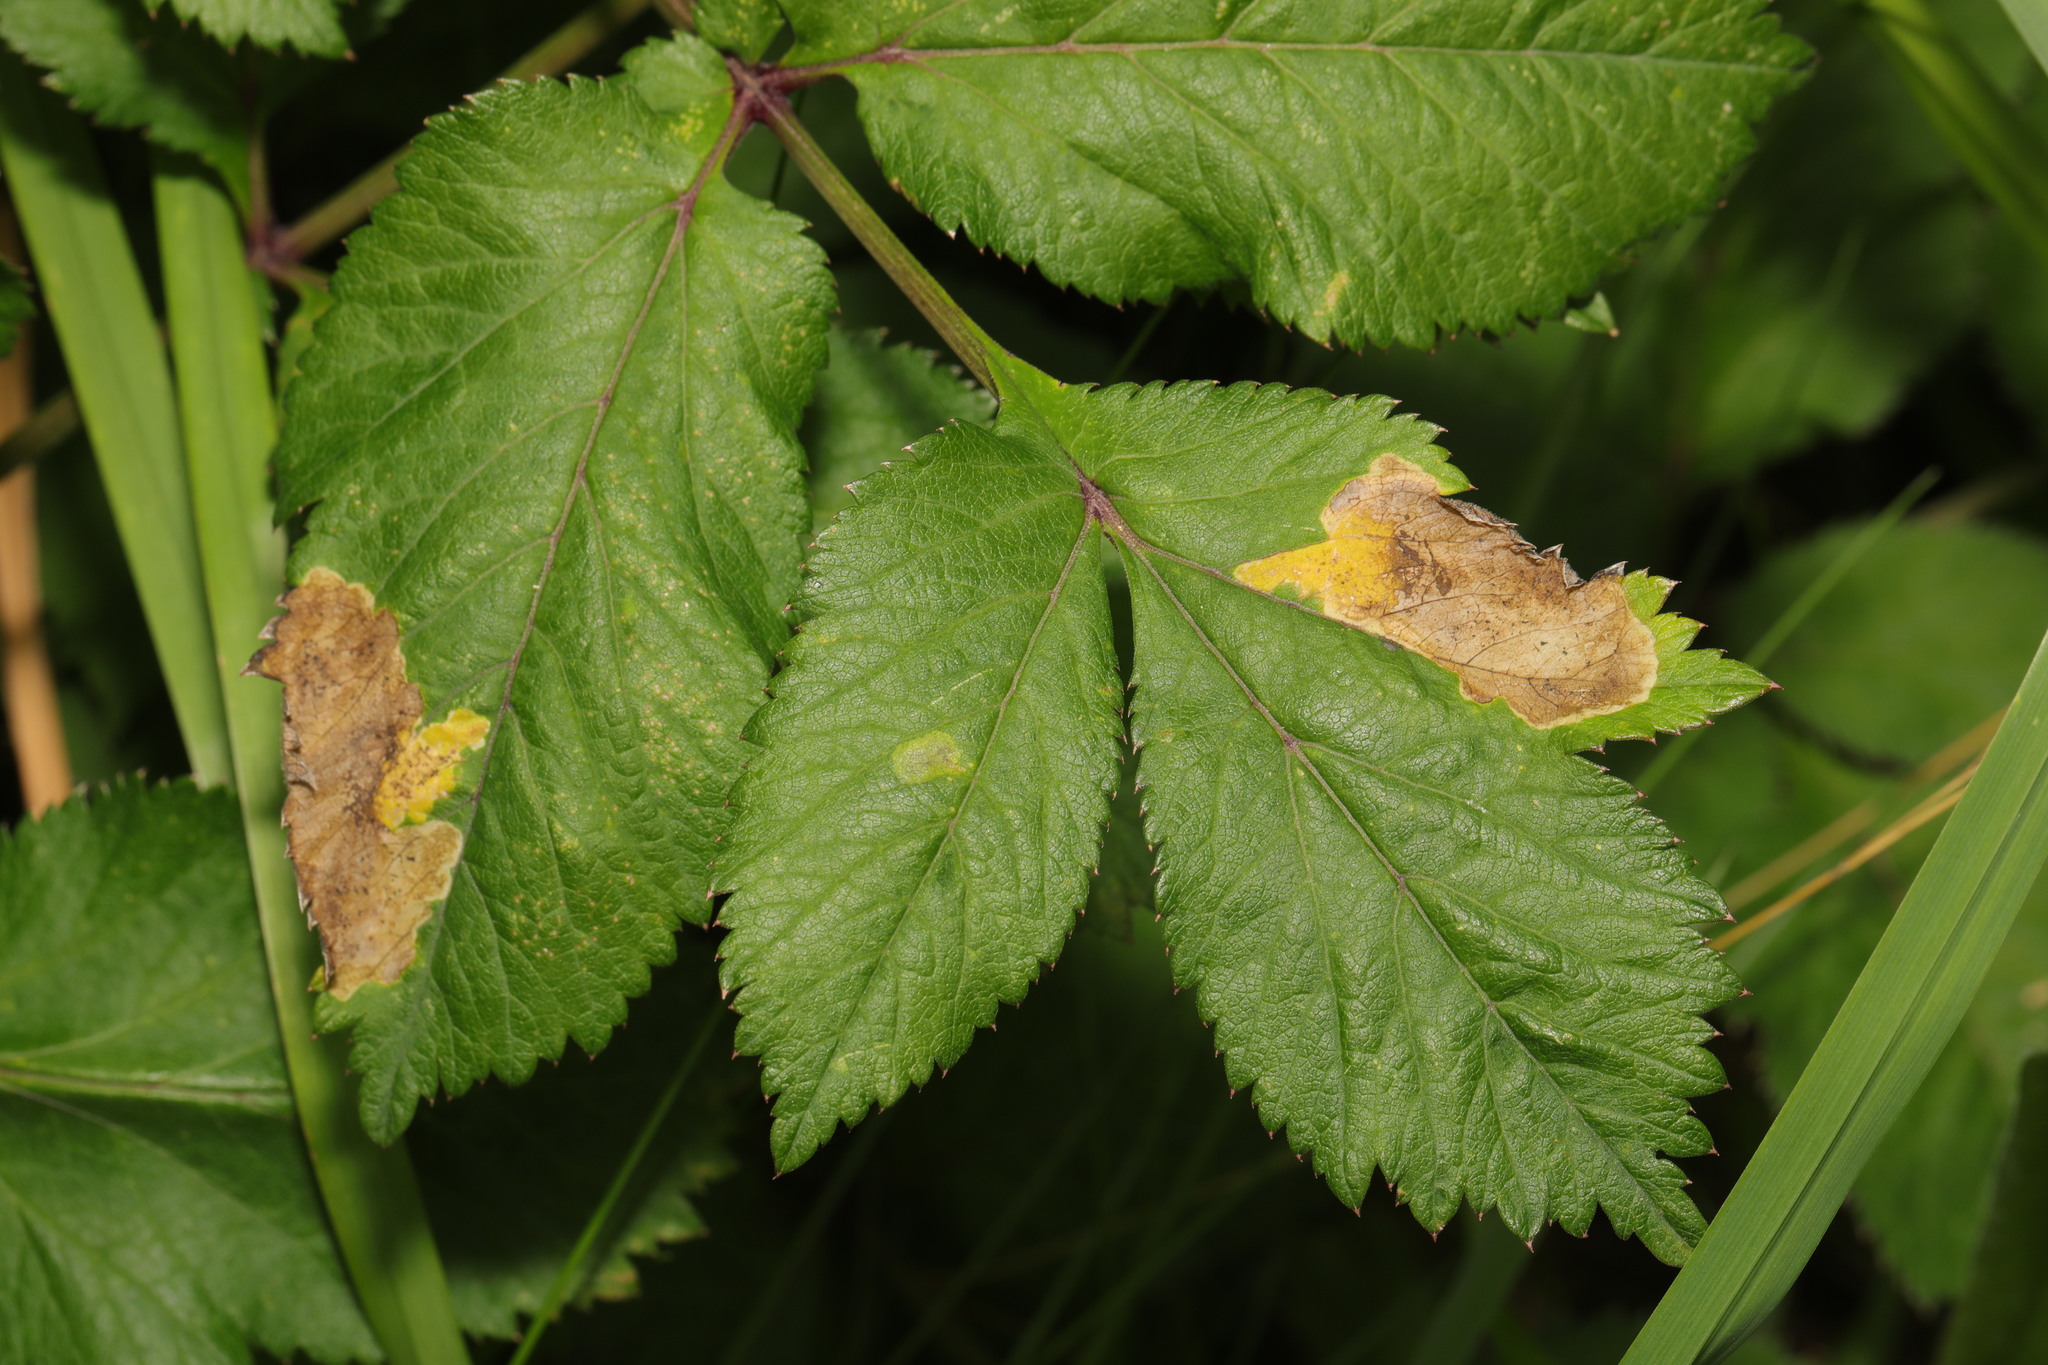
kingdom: Animalia
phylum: Arthropoda
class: Insecta
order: Diptera
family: Agromyzidae
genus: Phytomyza
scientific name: Phytomyza angelicae
